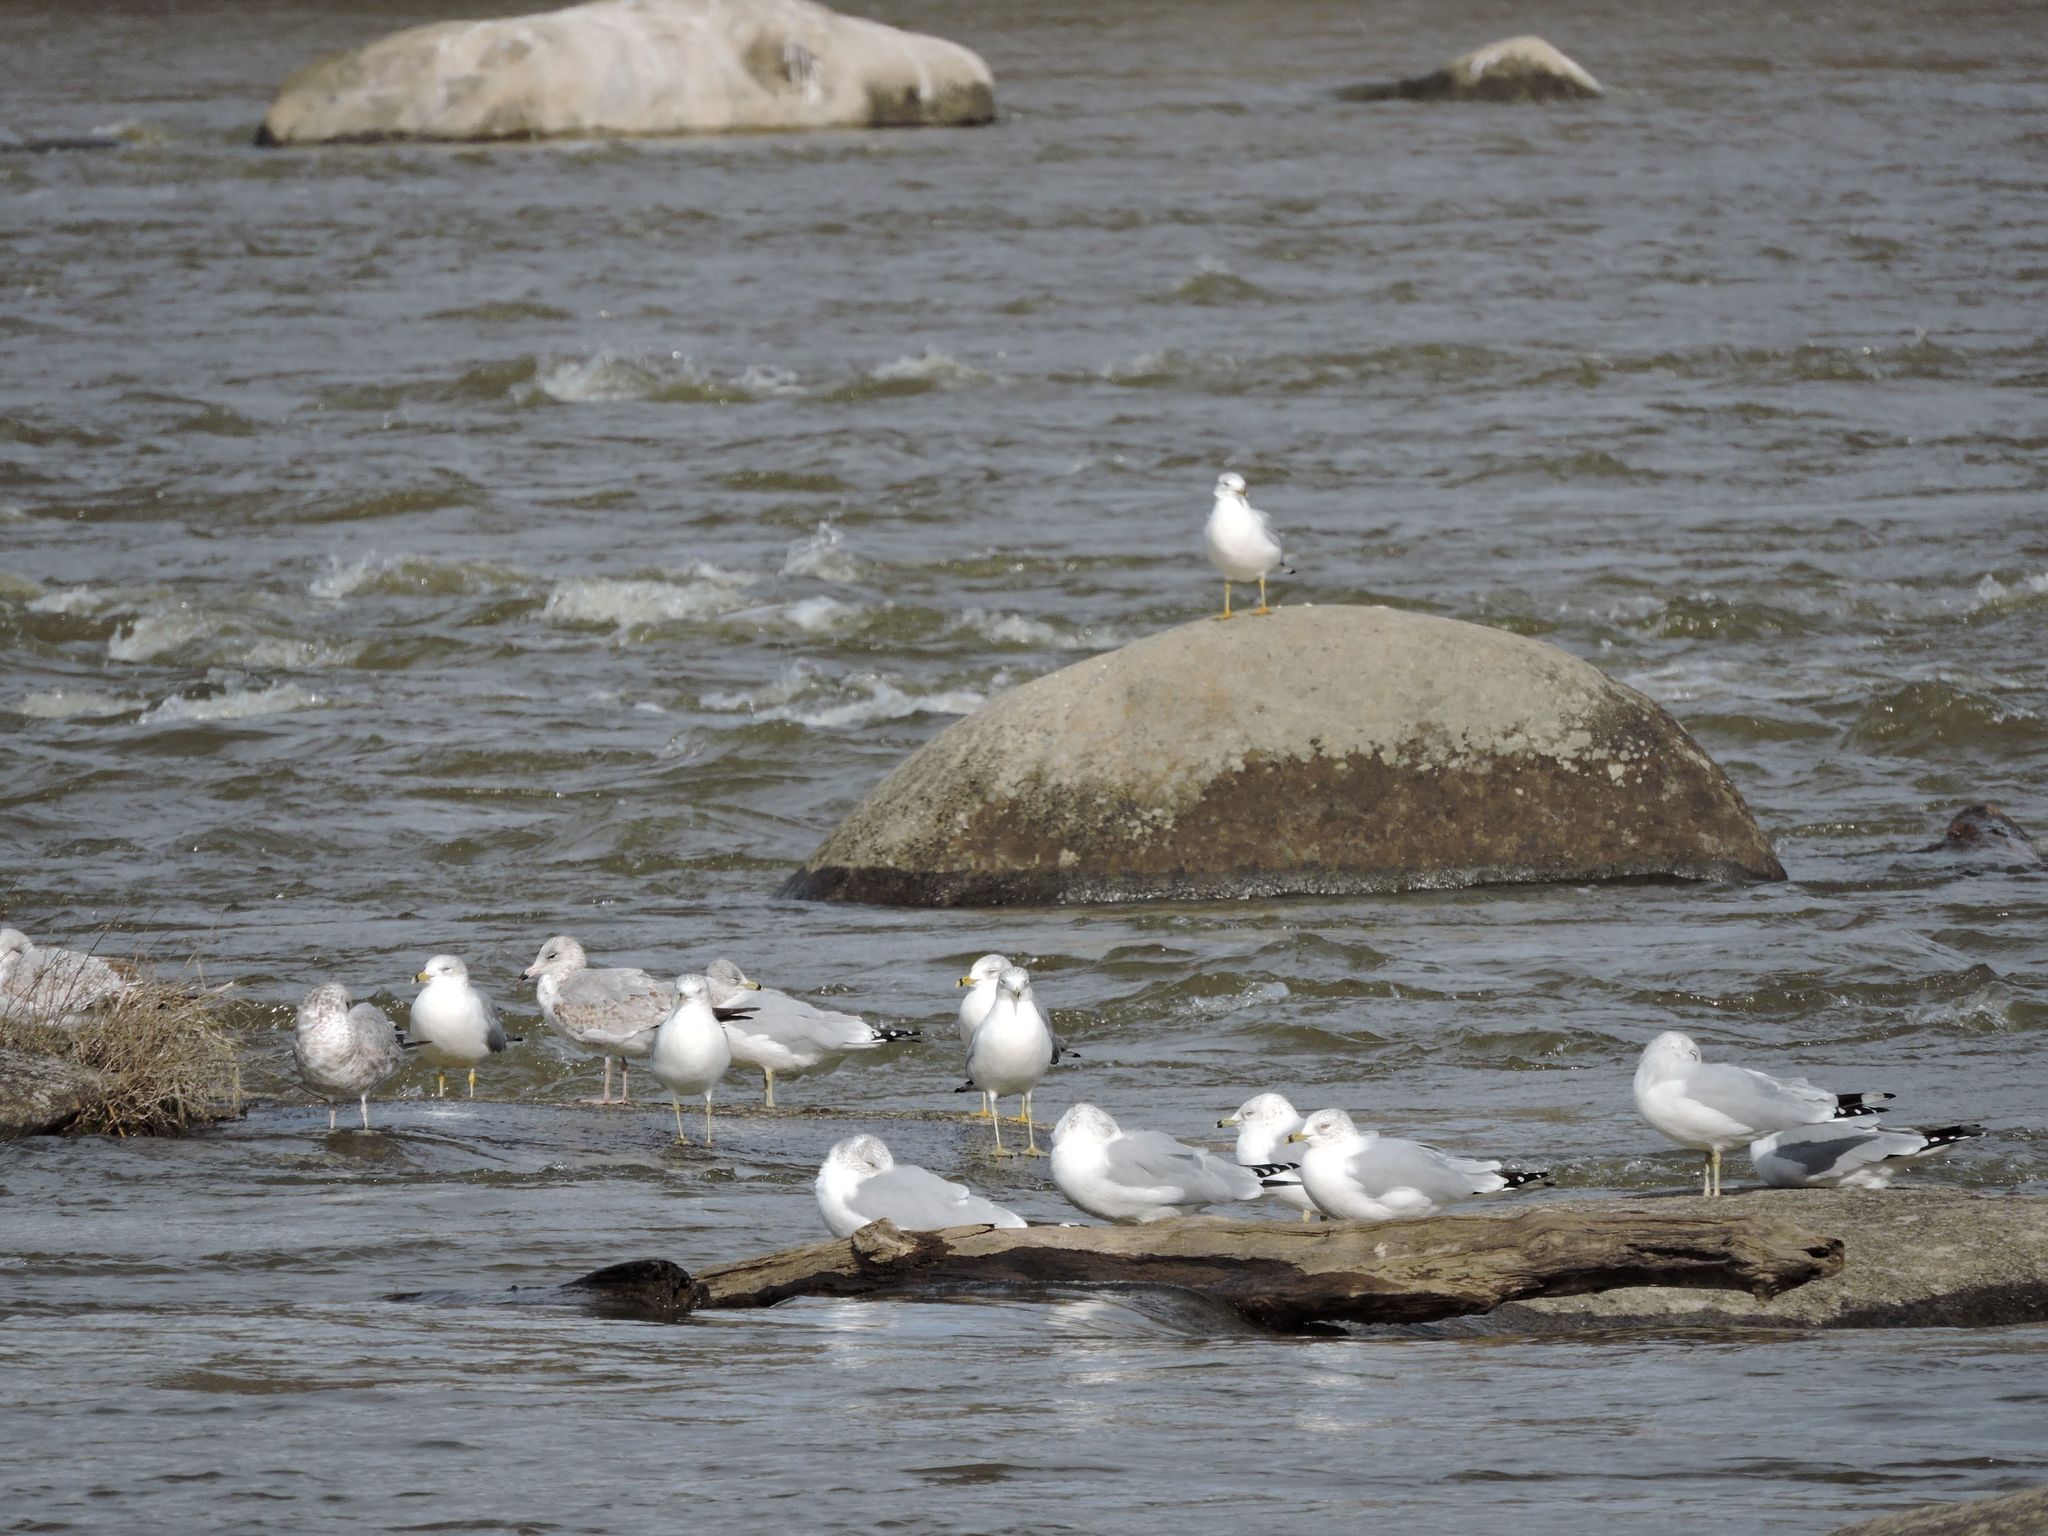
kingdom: Animalia
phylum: Chordata
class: Aves
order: Charadriiformes
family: Laridae
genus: Larus
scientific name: Larus delawarensis
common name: Ring-billed gull
